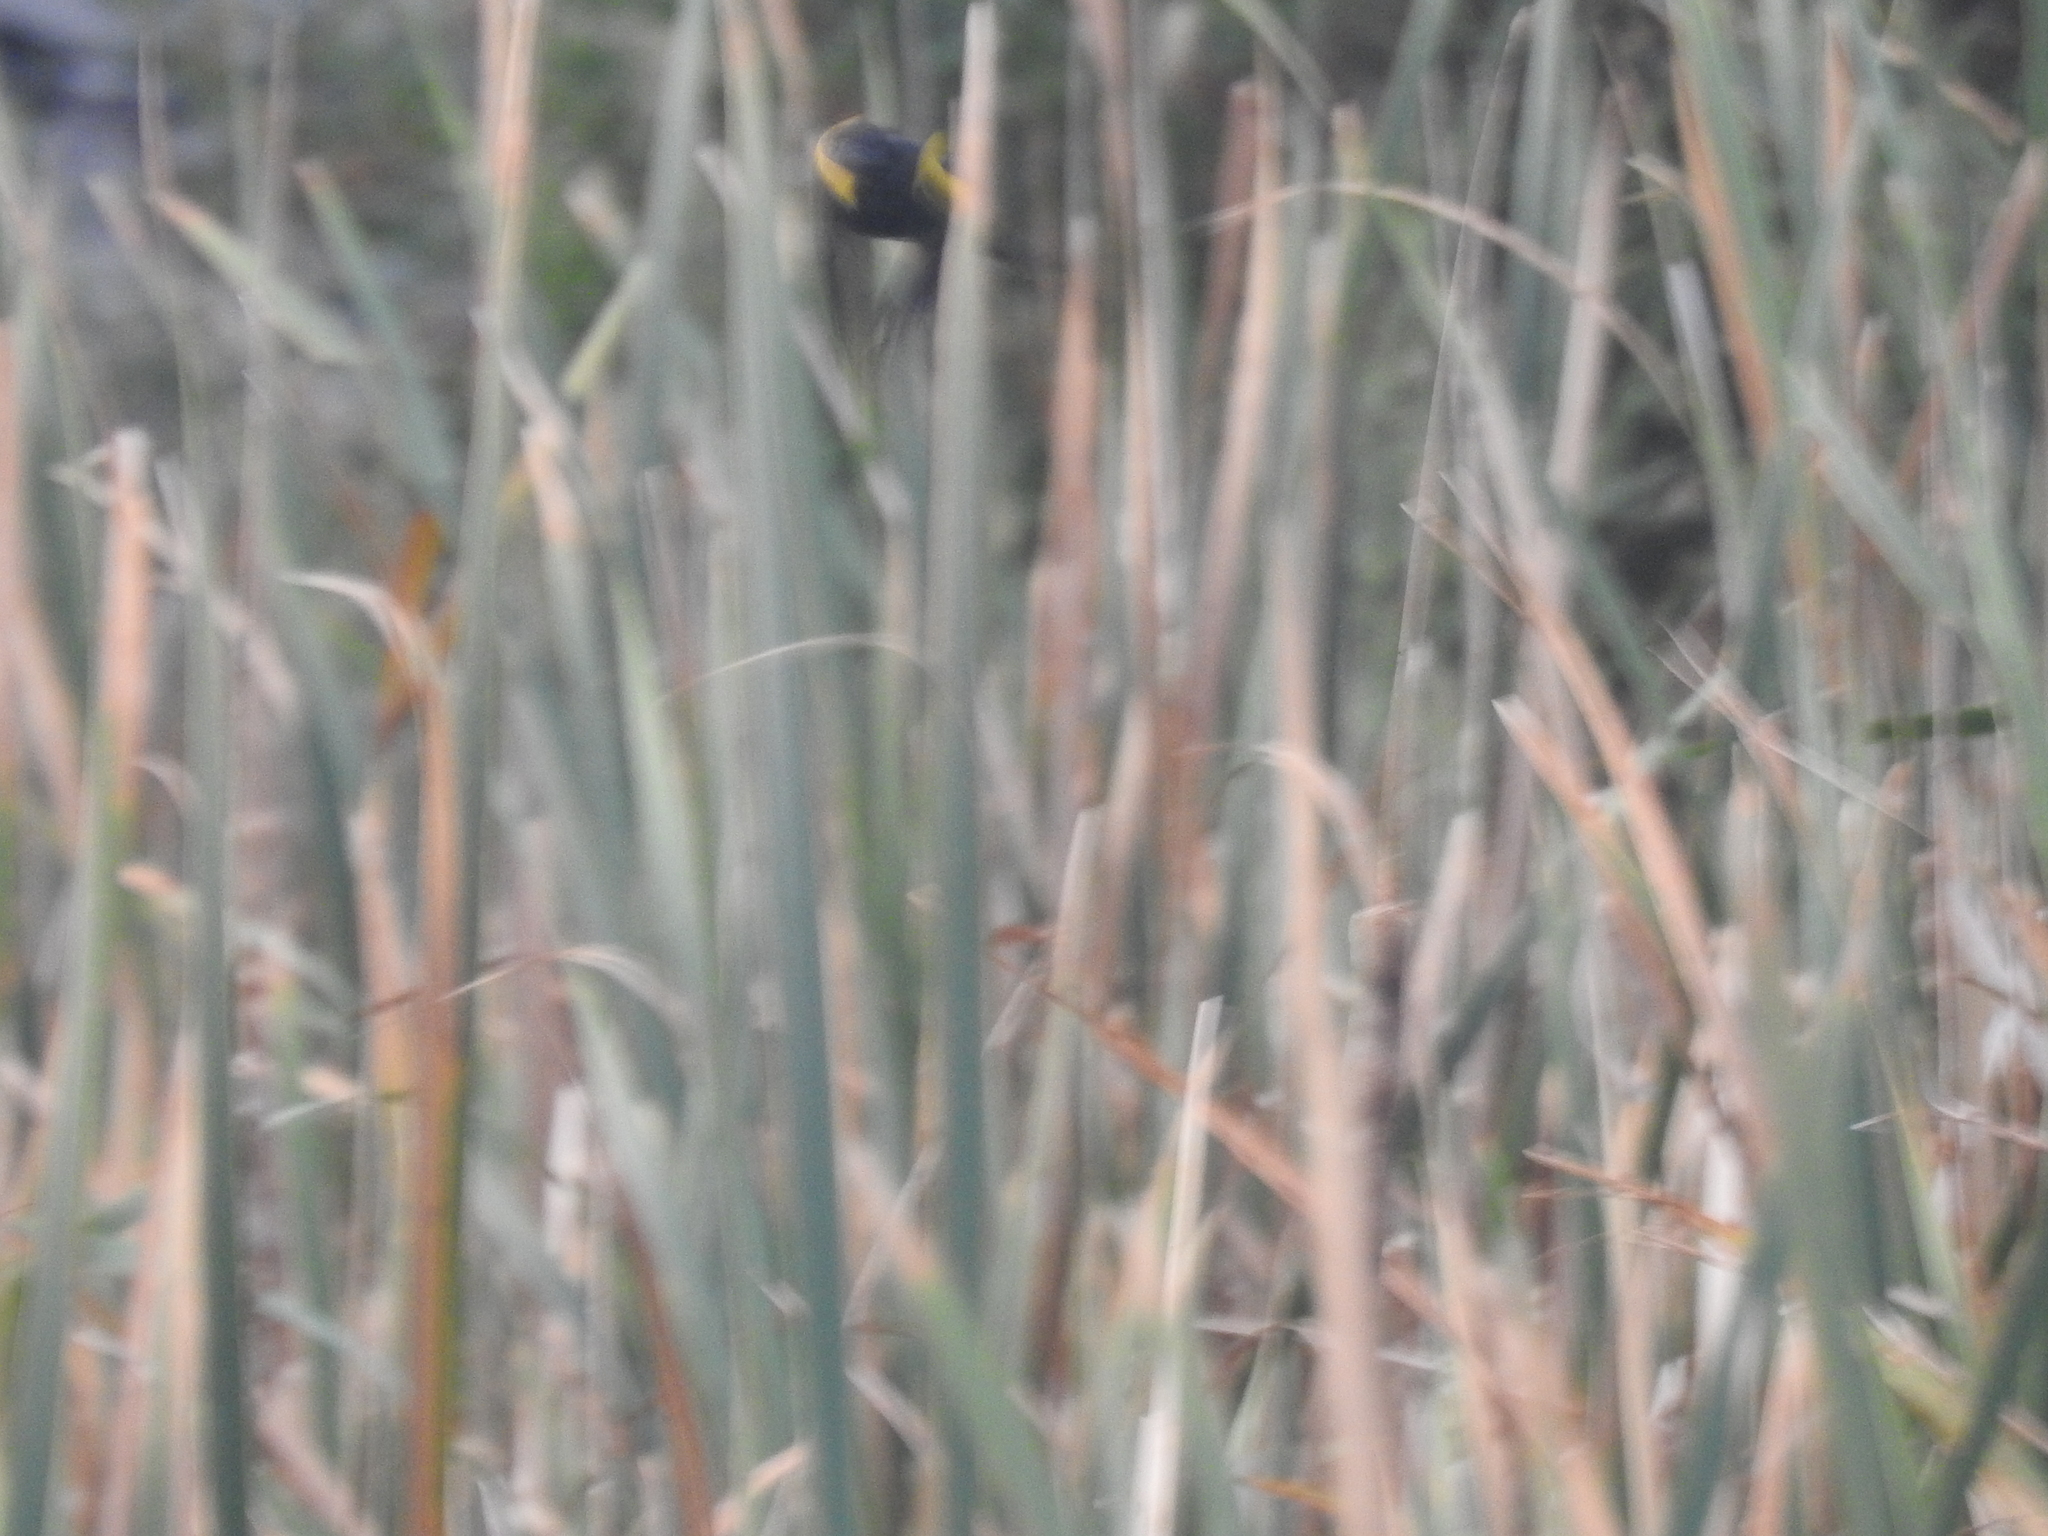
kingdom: Animalia
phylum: Chordata
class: Aves
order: Passeriformes
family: Icteridae
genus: Agelasticus
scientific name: Agelasticus thilius
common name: Yellow-winged blackbird
